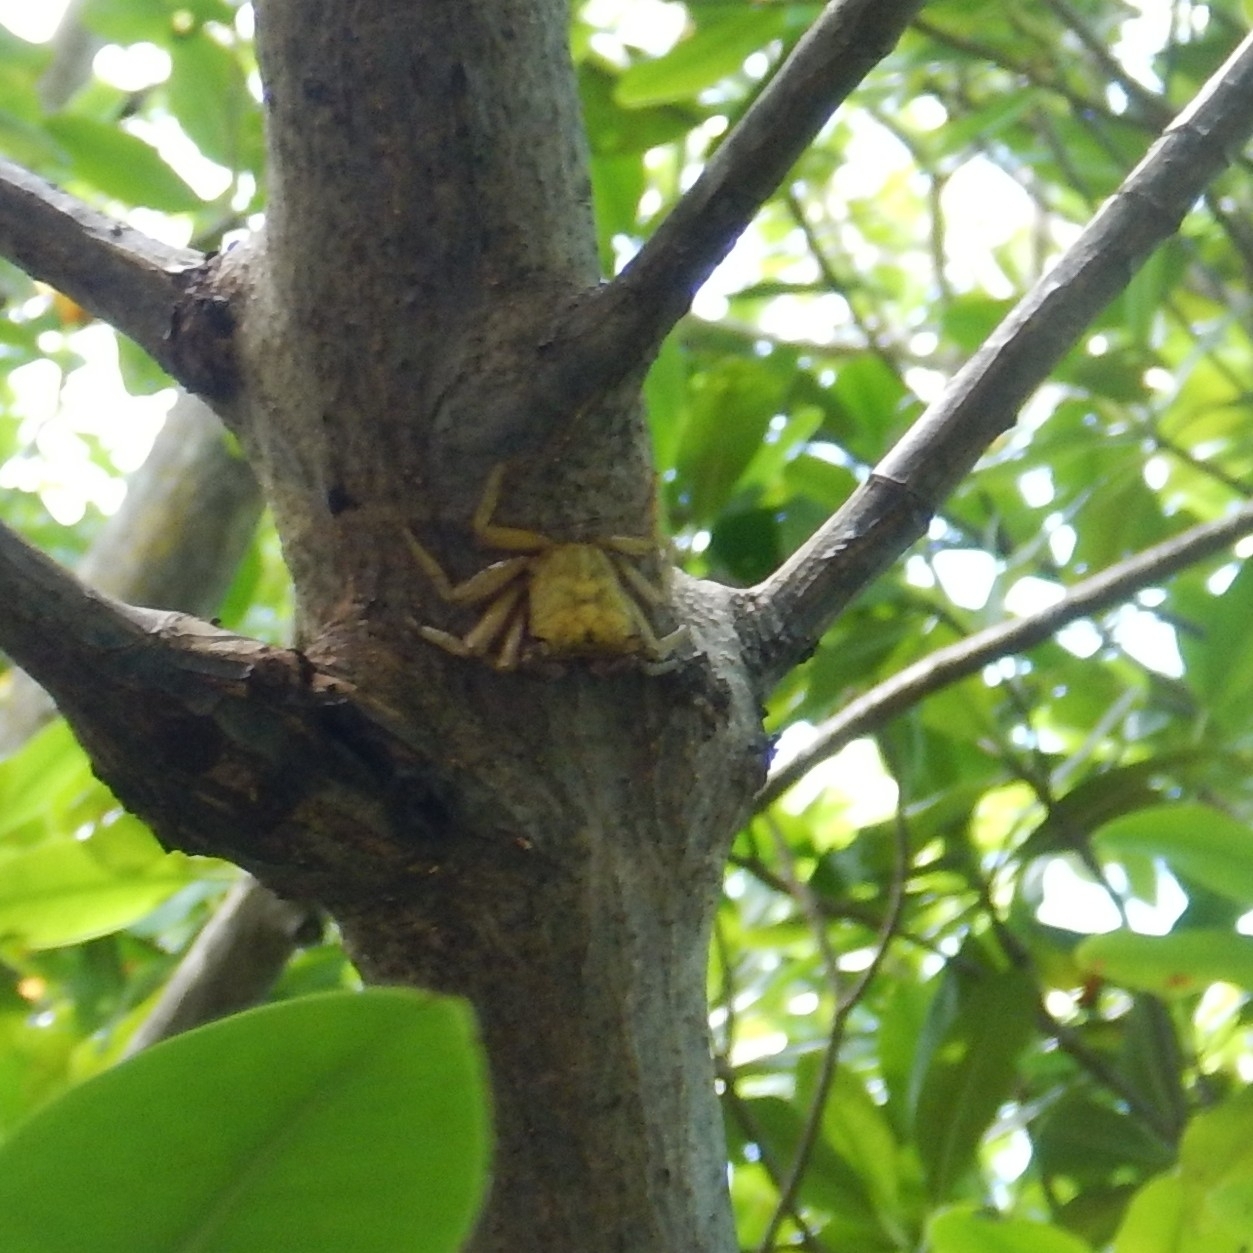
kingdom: Animalia
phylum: Arthropoda
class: Malacostraca
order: Decapoda
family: Sesarmidae
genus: Aratus
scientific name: Aratus pisonii
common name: Mangrove crab
